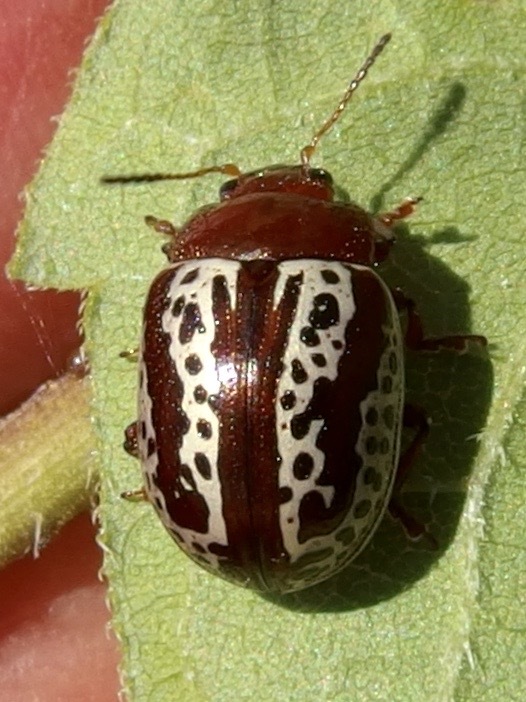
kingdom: Animalia
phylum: Arthropoda
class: Insecta
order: Coleoptera
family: Chrysomelidae
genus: Calligrapha
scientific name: Calligrapha
